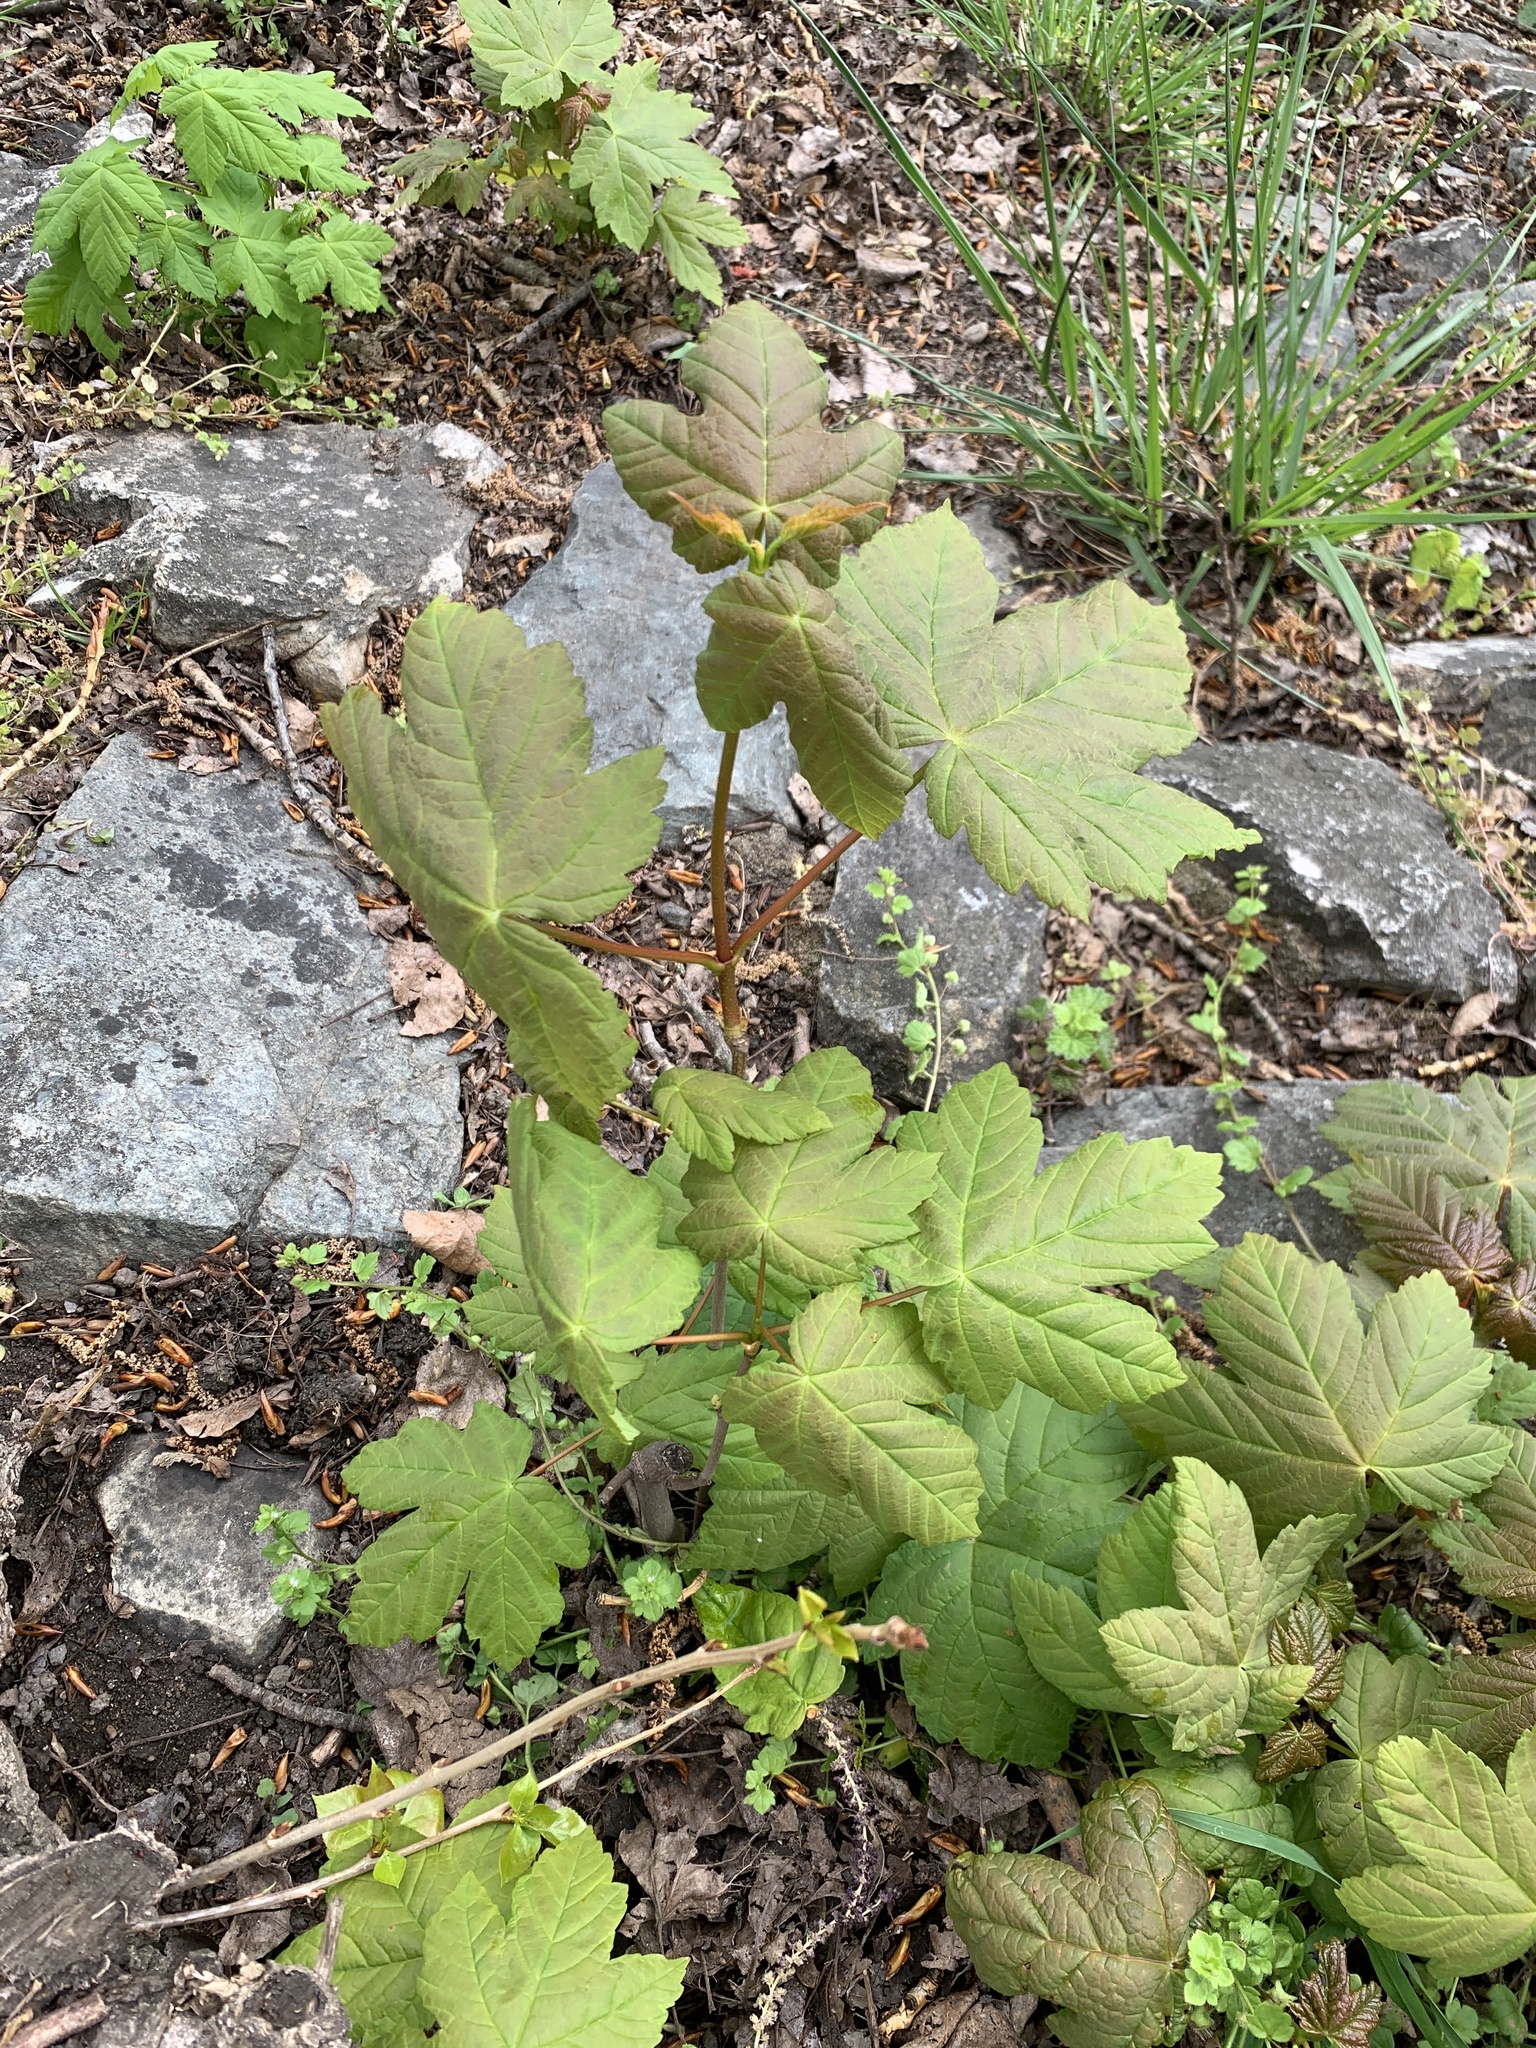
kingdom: Plantae
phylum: Tracheophyta
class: Magnoliopsida
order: Sapindales
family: Sapindaceae
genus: Acer
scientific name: Acer pseudoplatanus
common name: Sycamore
